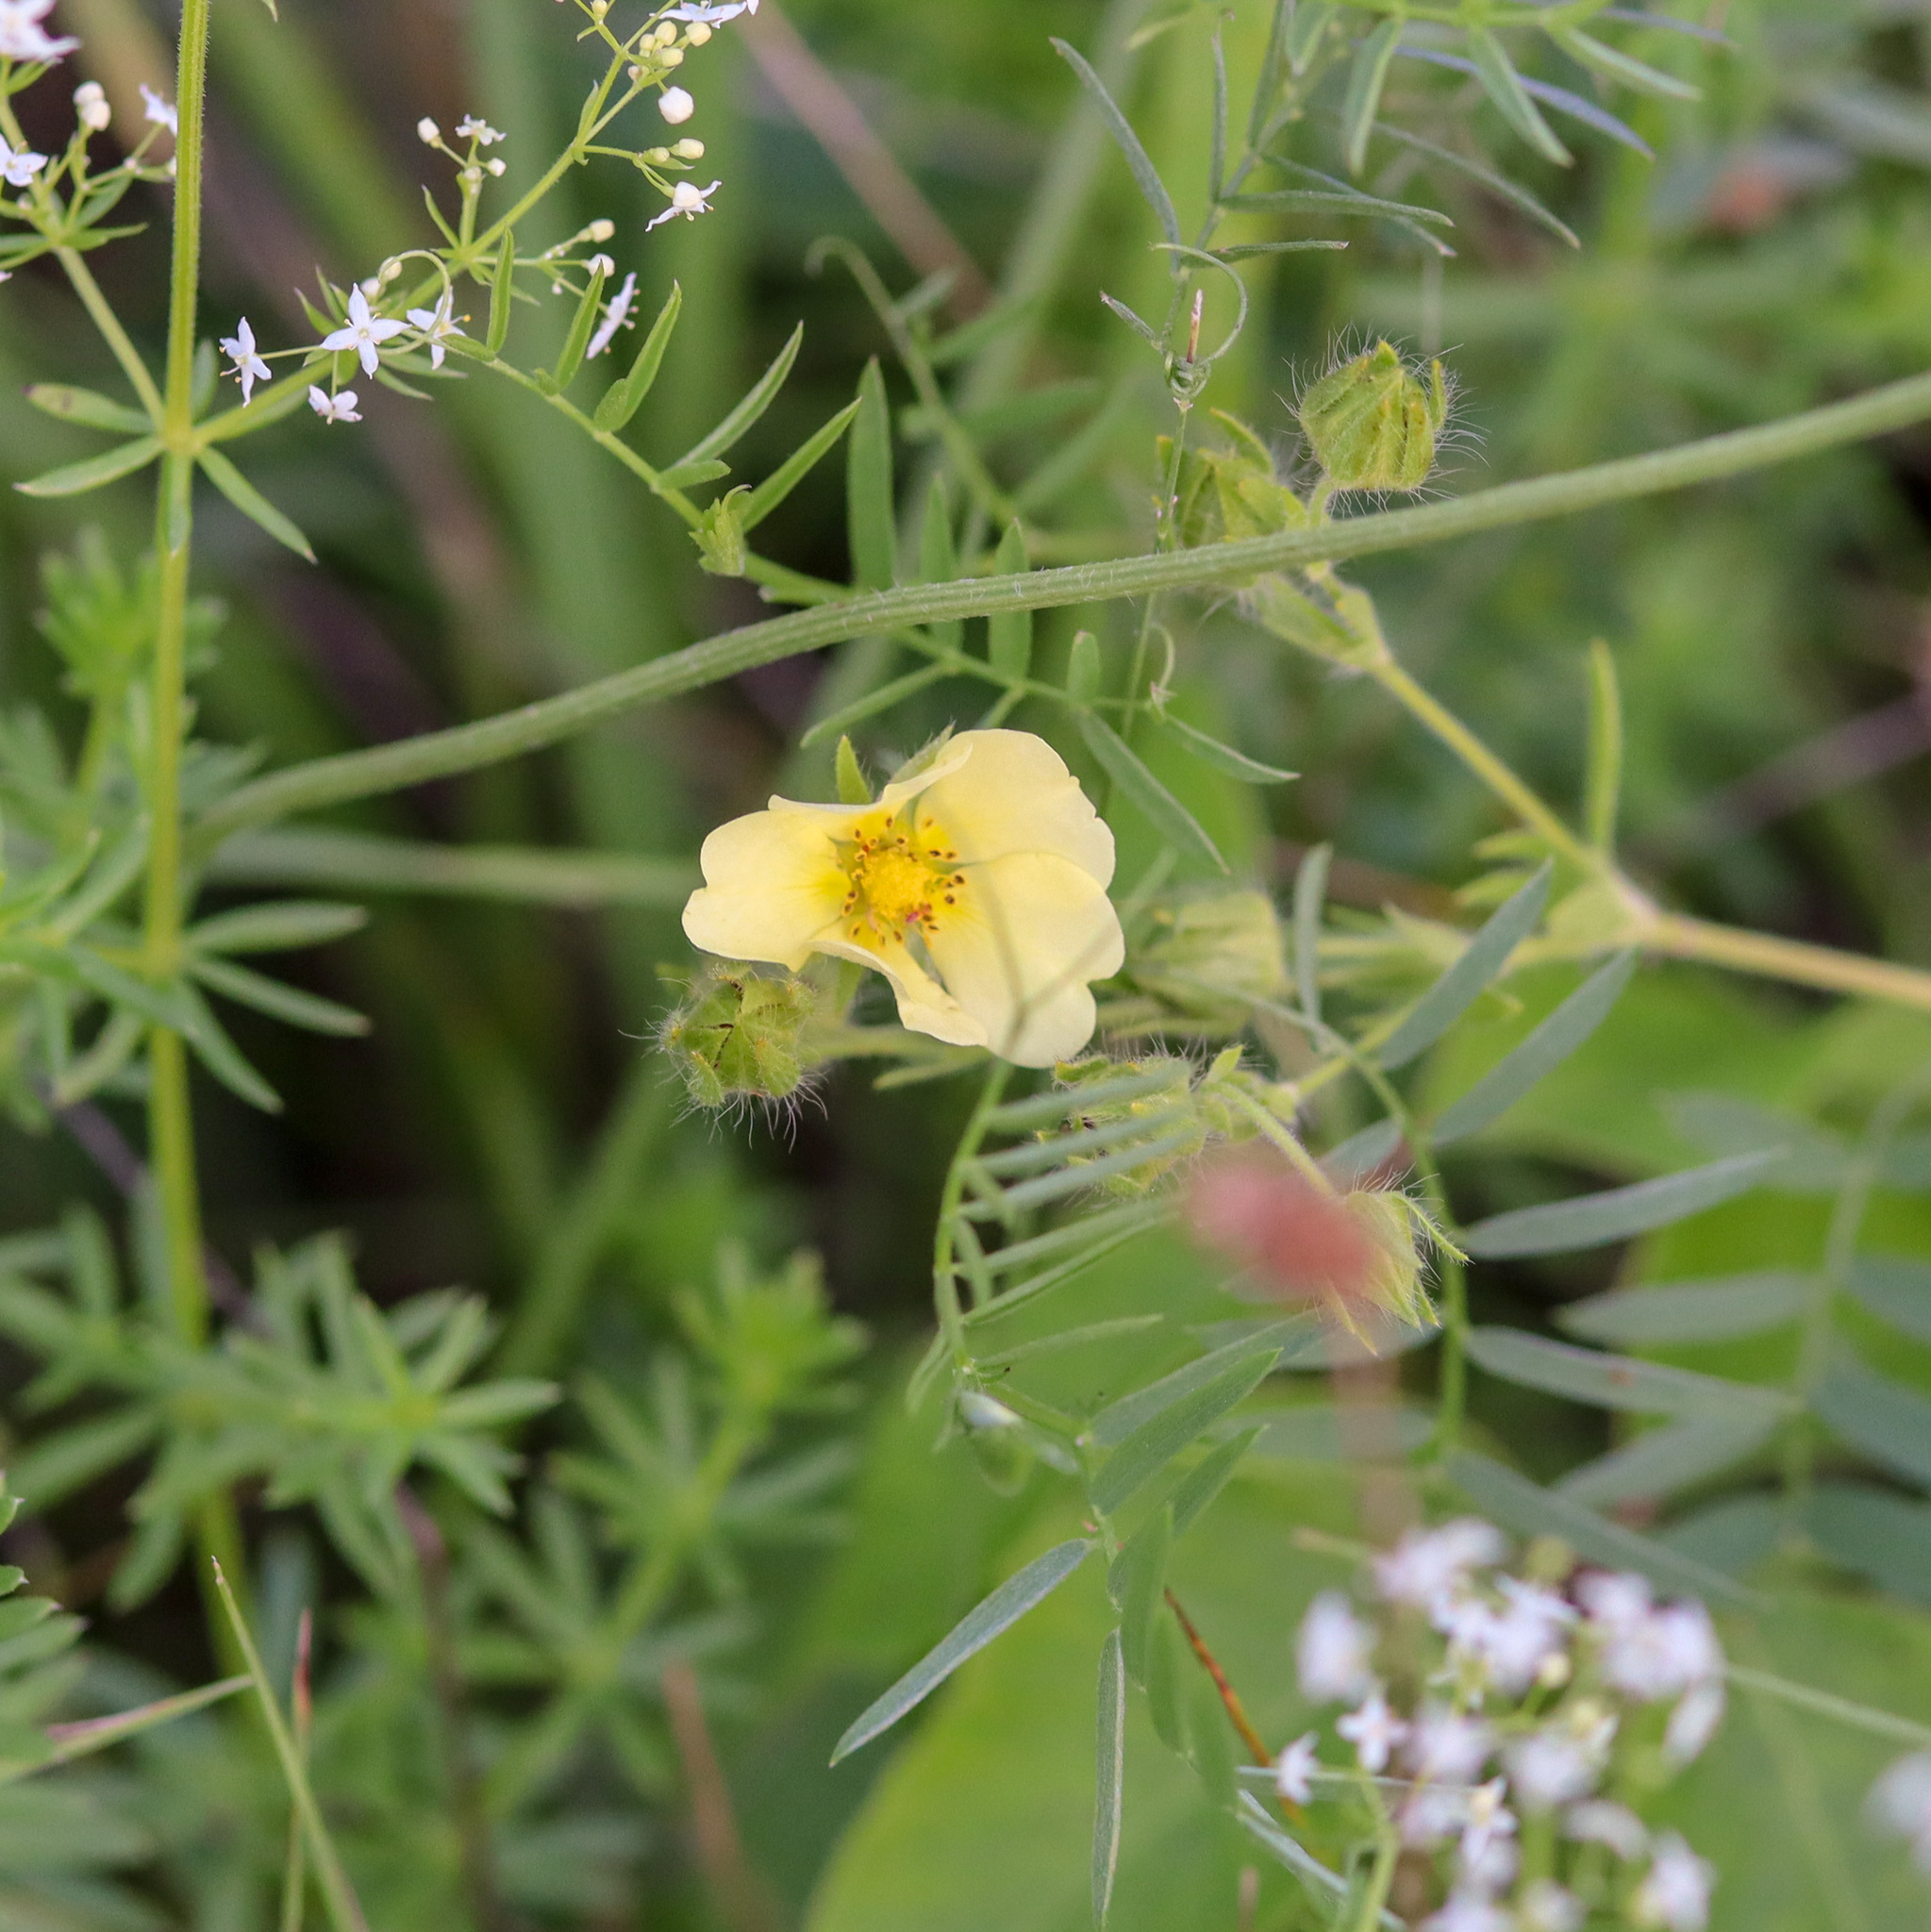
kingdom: Plantae
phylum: Tracheophyta
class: Magnoliopsida
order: Rosales
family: Rosaceae
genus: Potentilla
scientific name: Potentilla recta
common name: Sulphur cinquefoil
